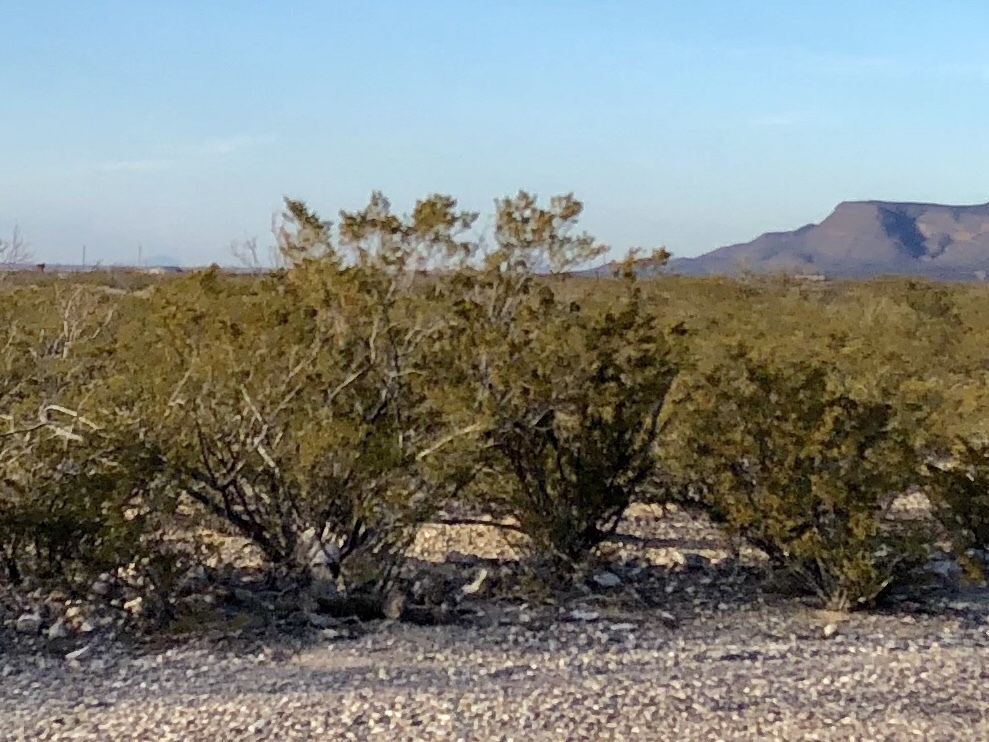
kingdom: Plantae
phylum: Tracheophyta
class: Magnoliopsida
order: Zygophyllales
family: Zygophyllaceae
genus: Larrea
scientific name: Larrea tridentata
